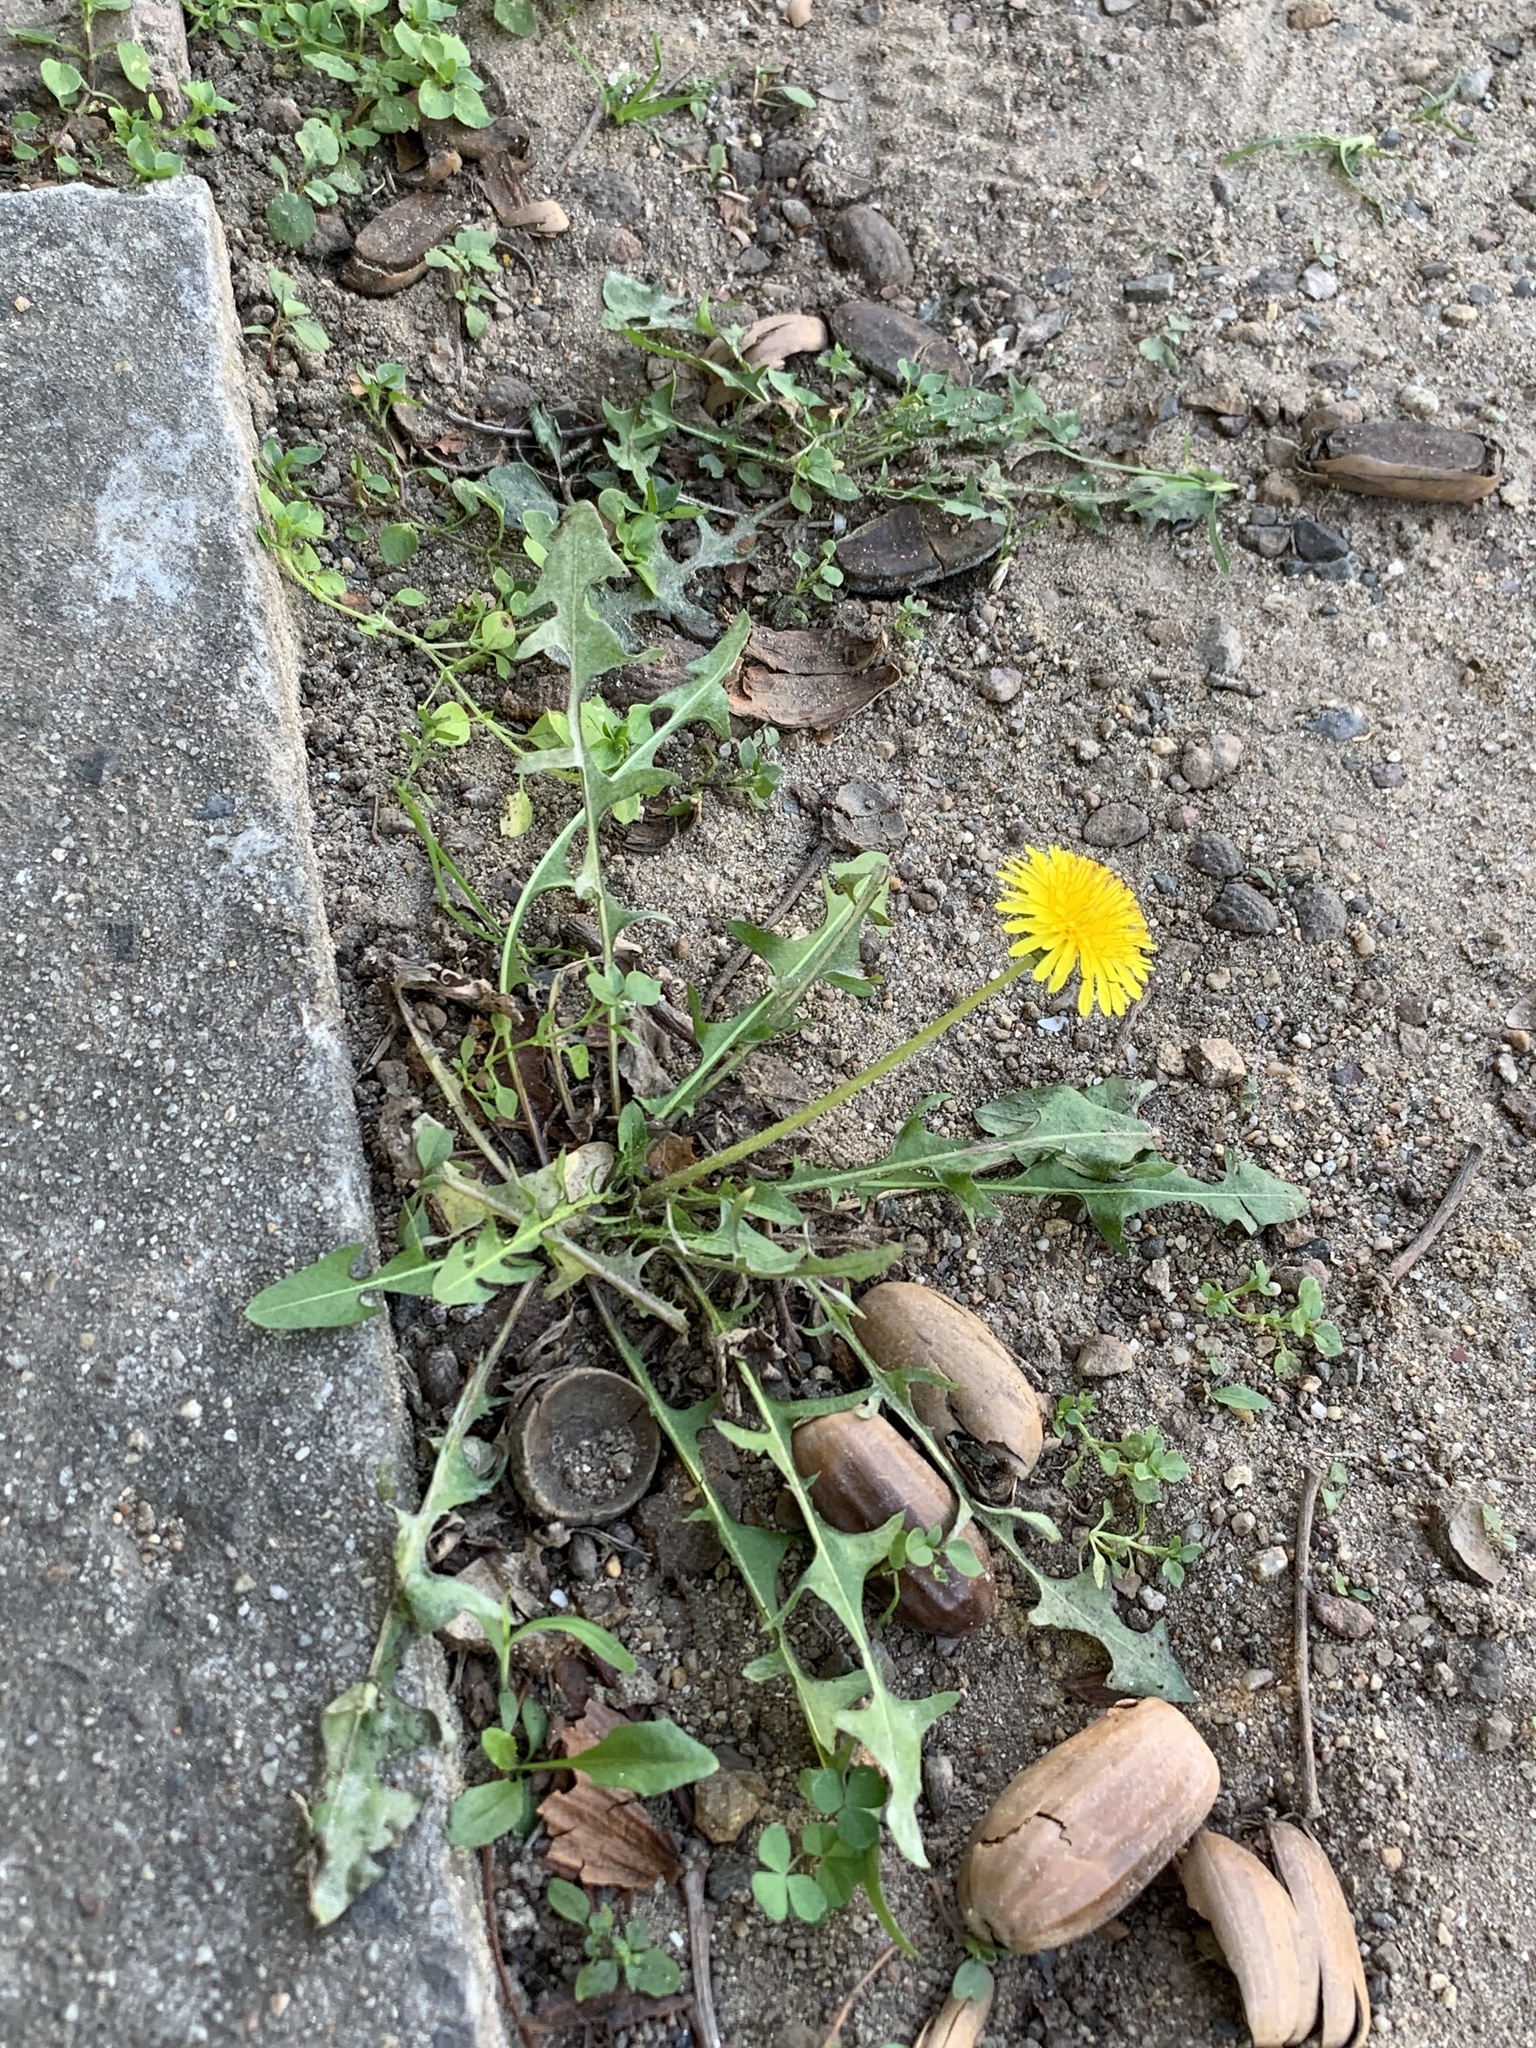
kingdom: Plantae
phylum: Tracheophyta
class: Magnoliopsida
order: Asterales
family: Asteraceae
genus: Taraxacum
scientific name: Taraxacum officinale
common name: Common dandelion
